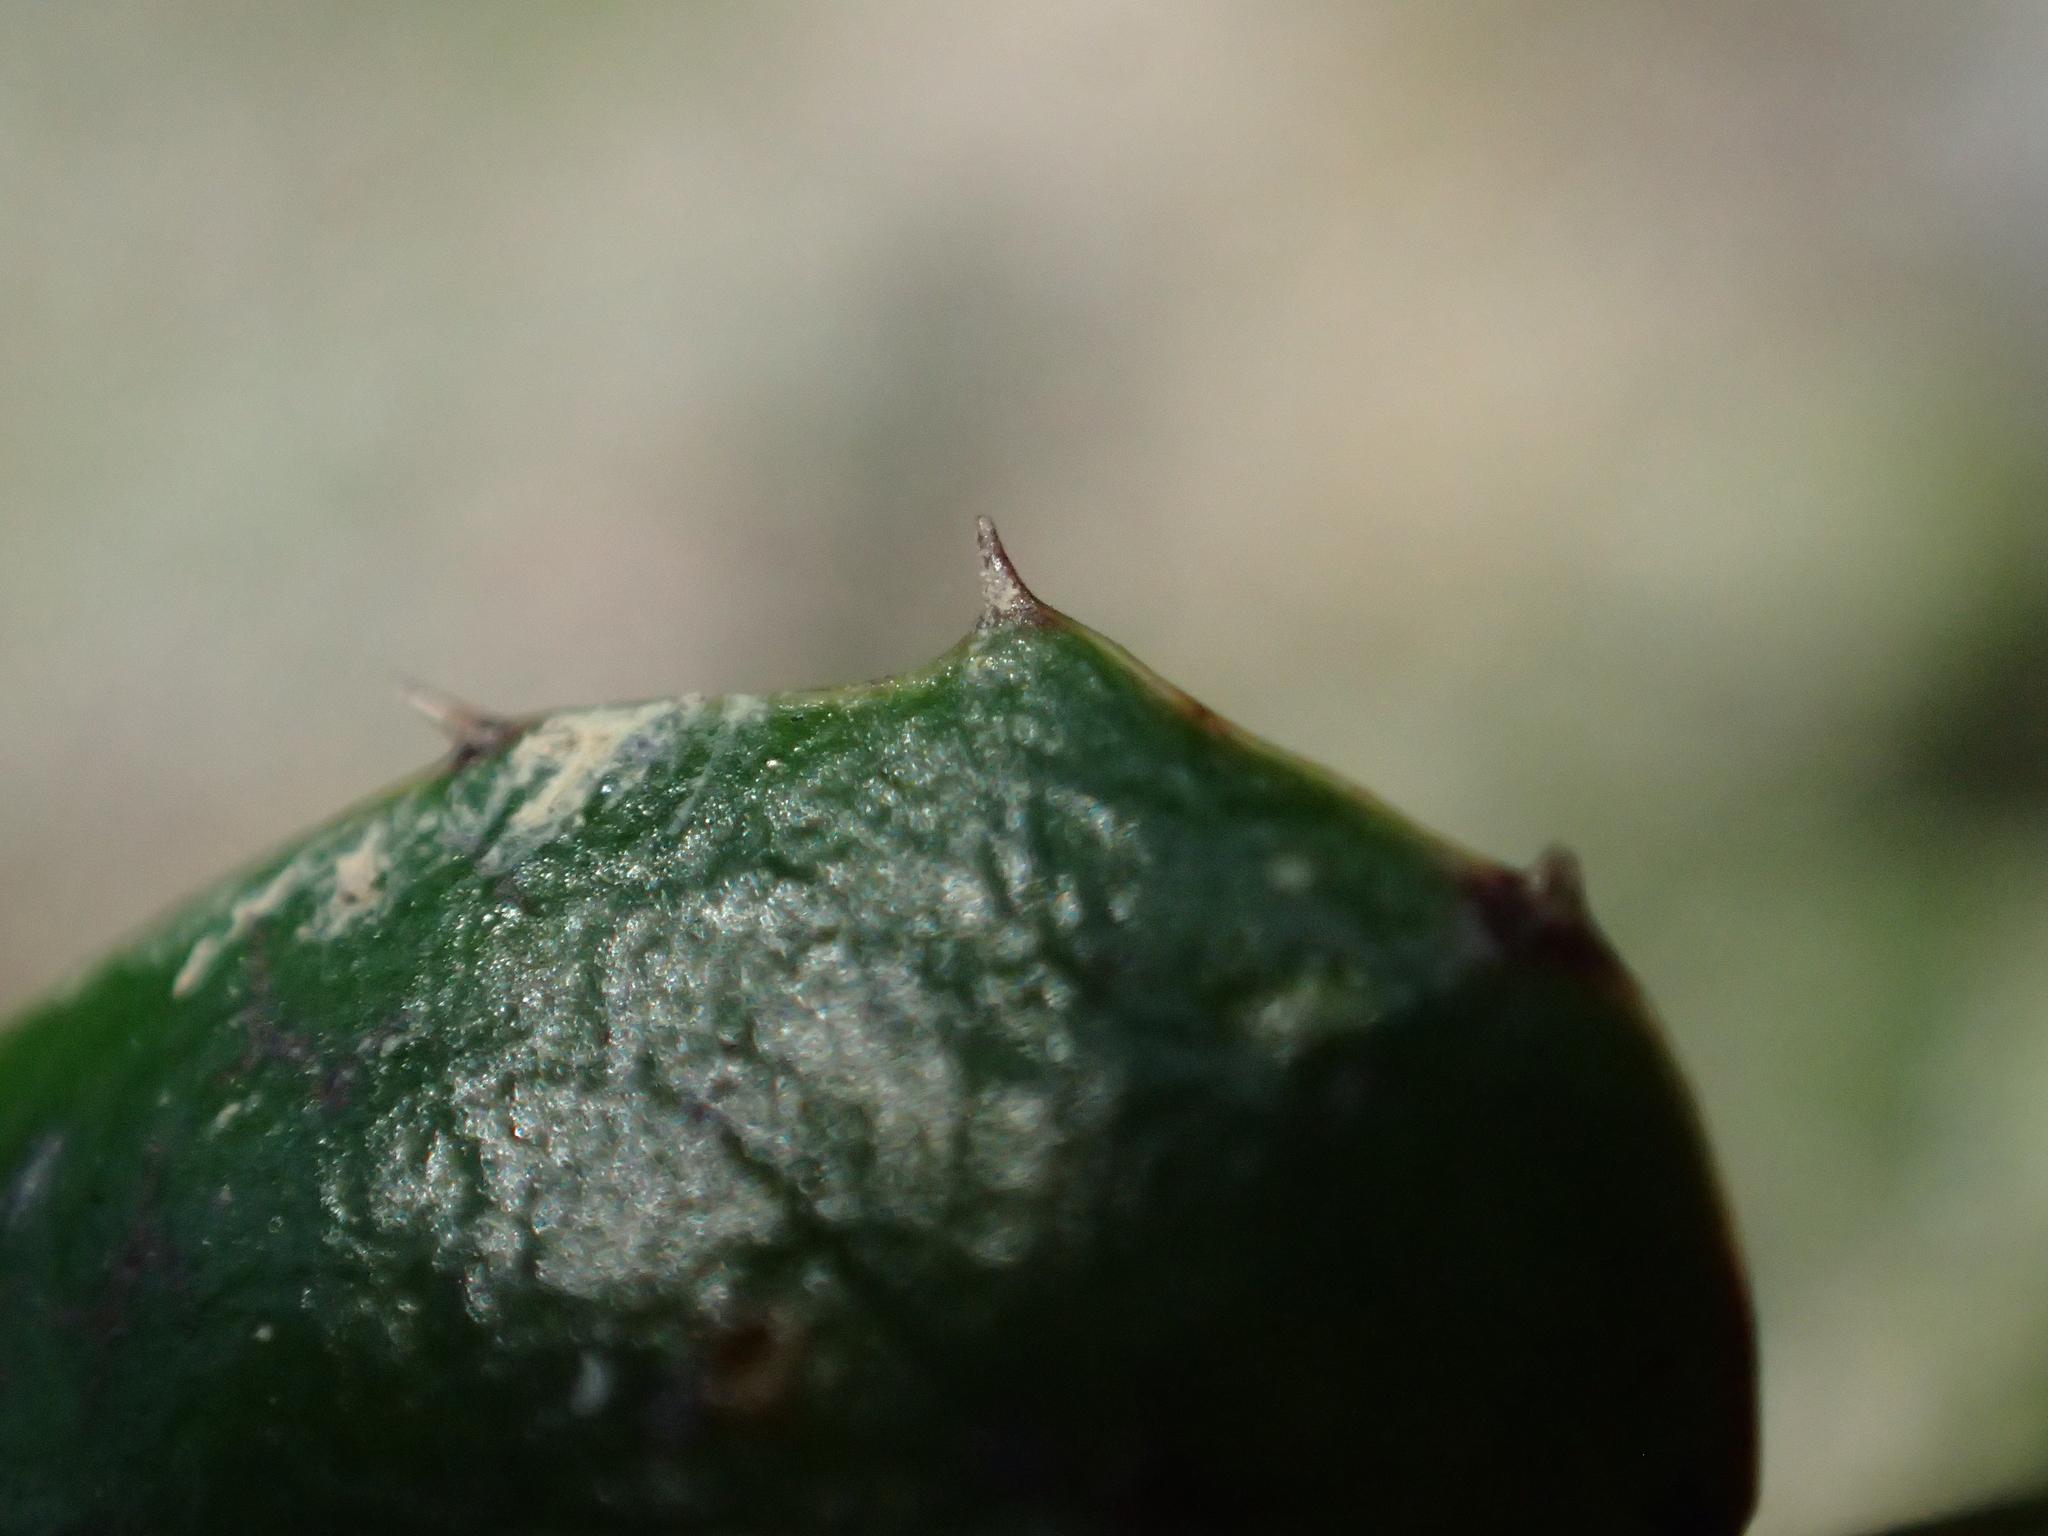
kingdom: Plantae
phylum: Tracheophyta
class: Magnoliopsida
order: Ranunculales
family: Berberidaceae
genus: Berberis
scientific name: Berberis darwinii
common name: Darwin's barberry
